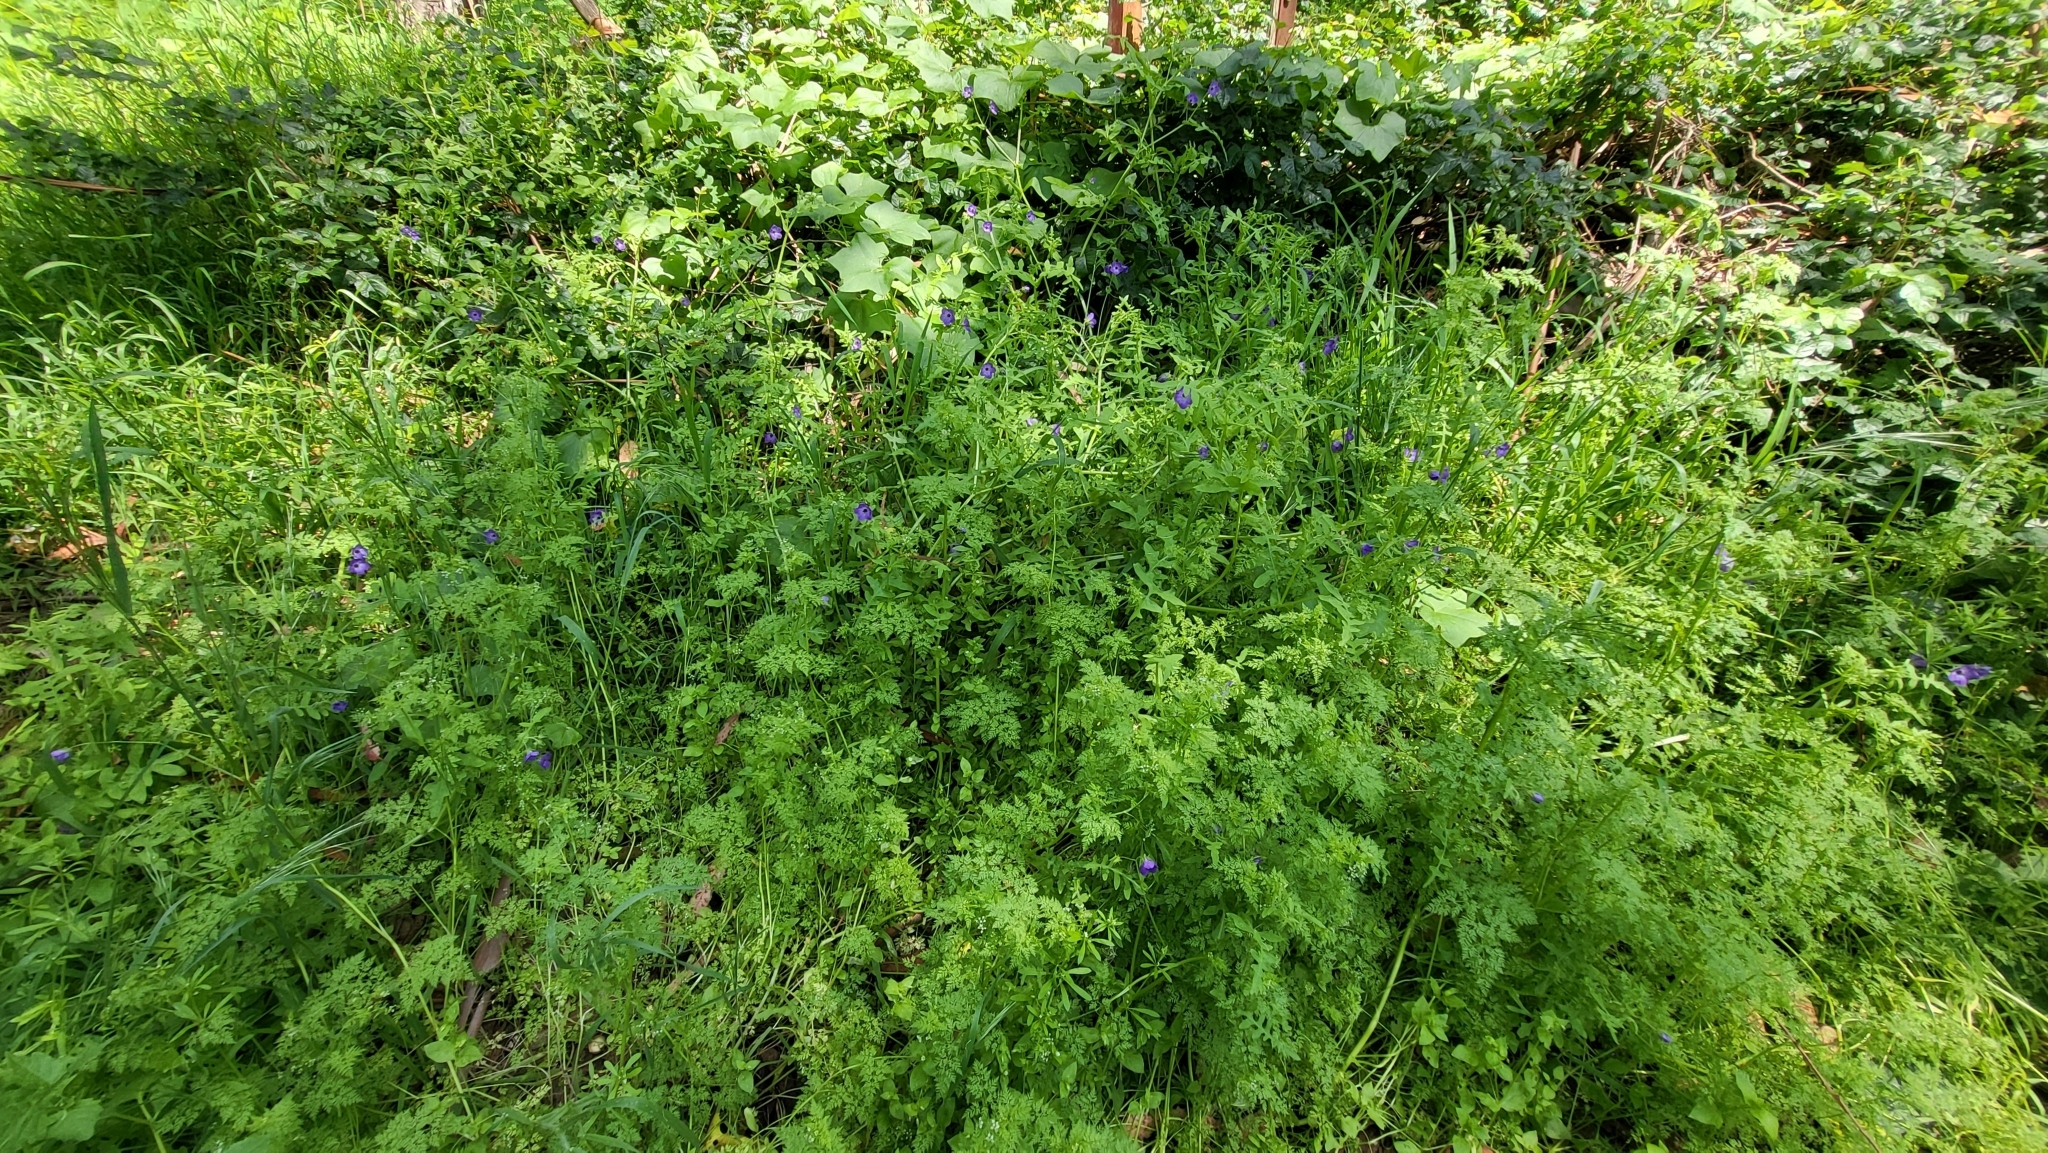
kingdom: Plantae
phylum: Tracheophyta
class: Magnoliopsida
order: Boraginales
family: Hydrophyllaceae
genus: Pholistoma
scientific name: Pholistoma auritum
